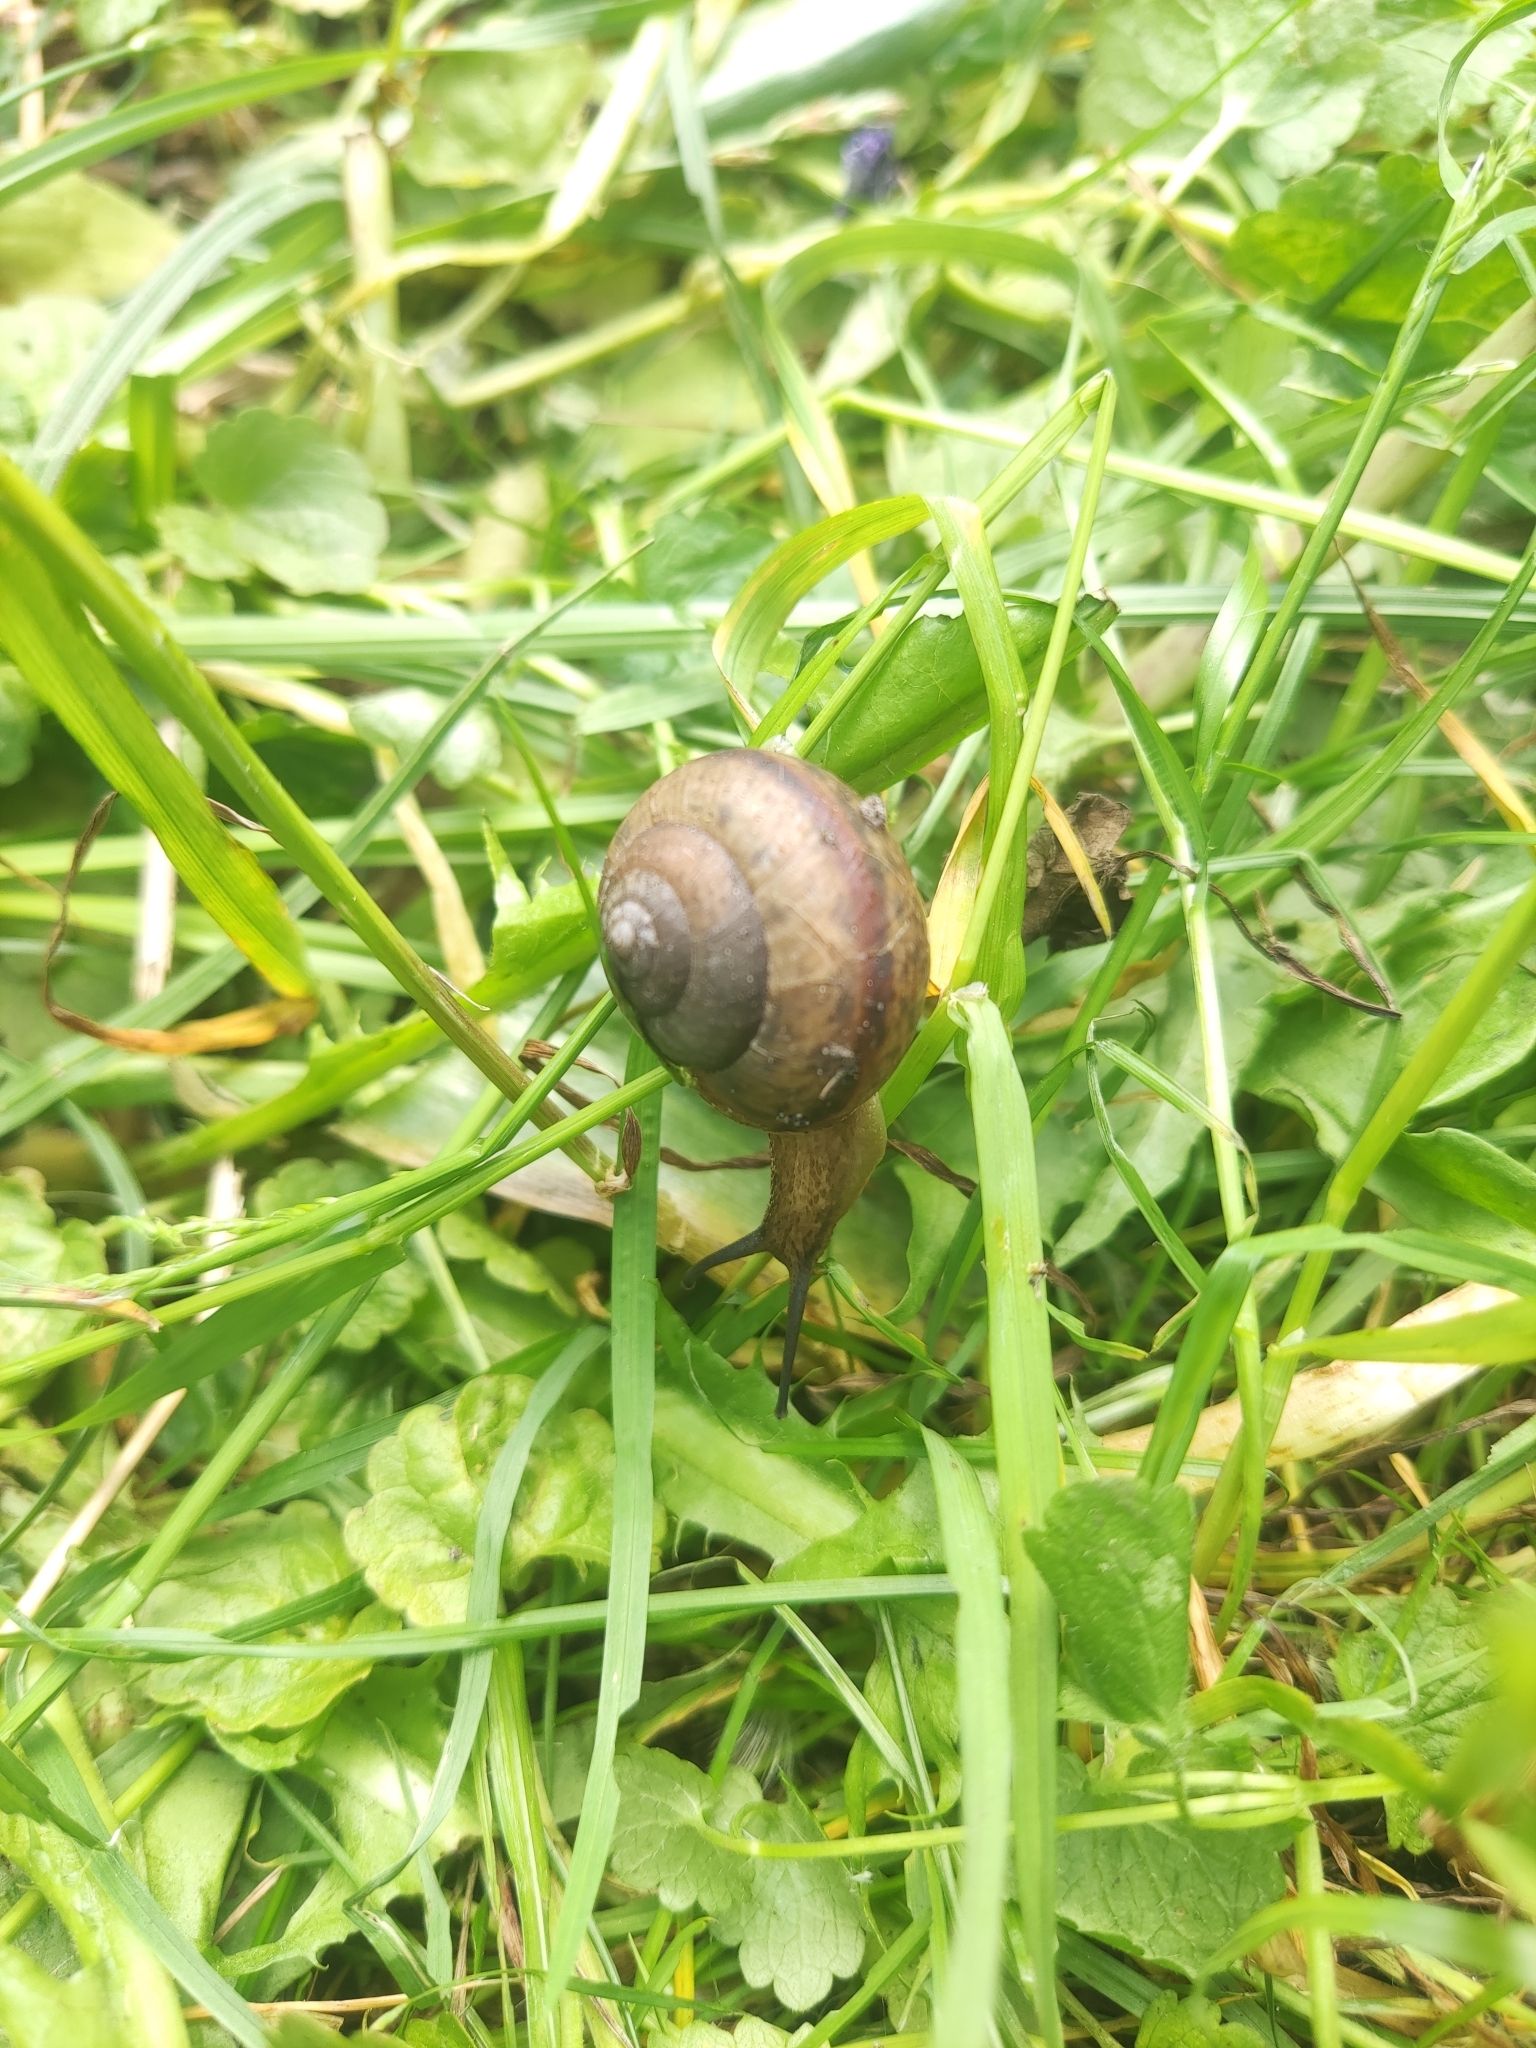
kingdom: Animalia
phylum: Mollusca
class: Gastropoda
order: Stylommatophora
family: Camaenidae
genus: Fruticicola
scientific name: Fruticicola fruticum
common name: Bush snail
